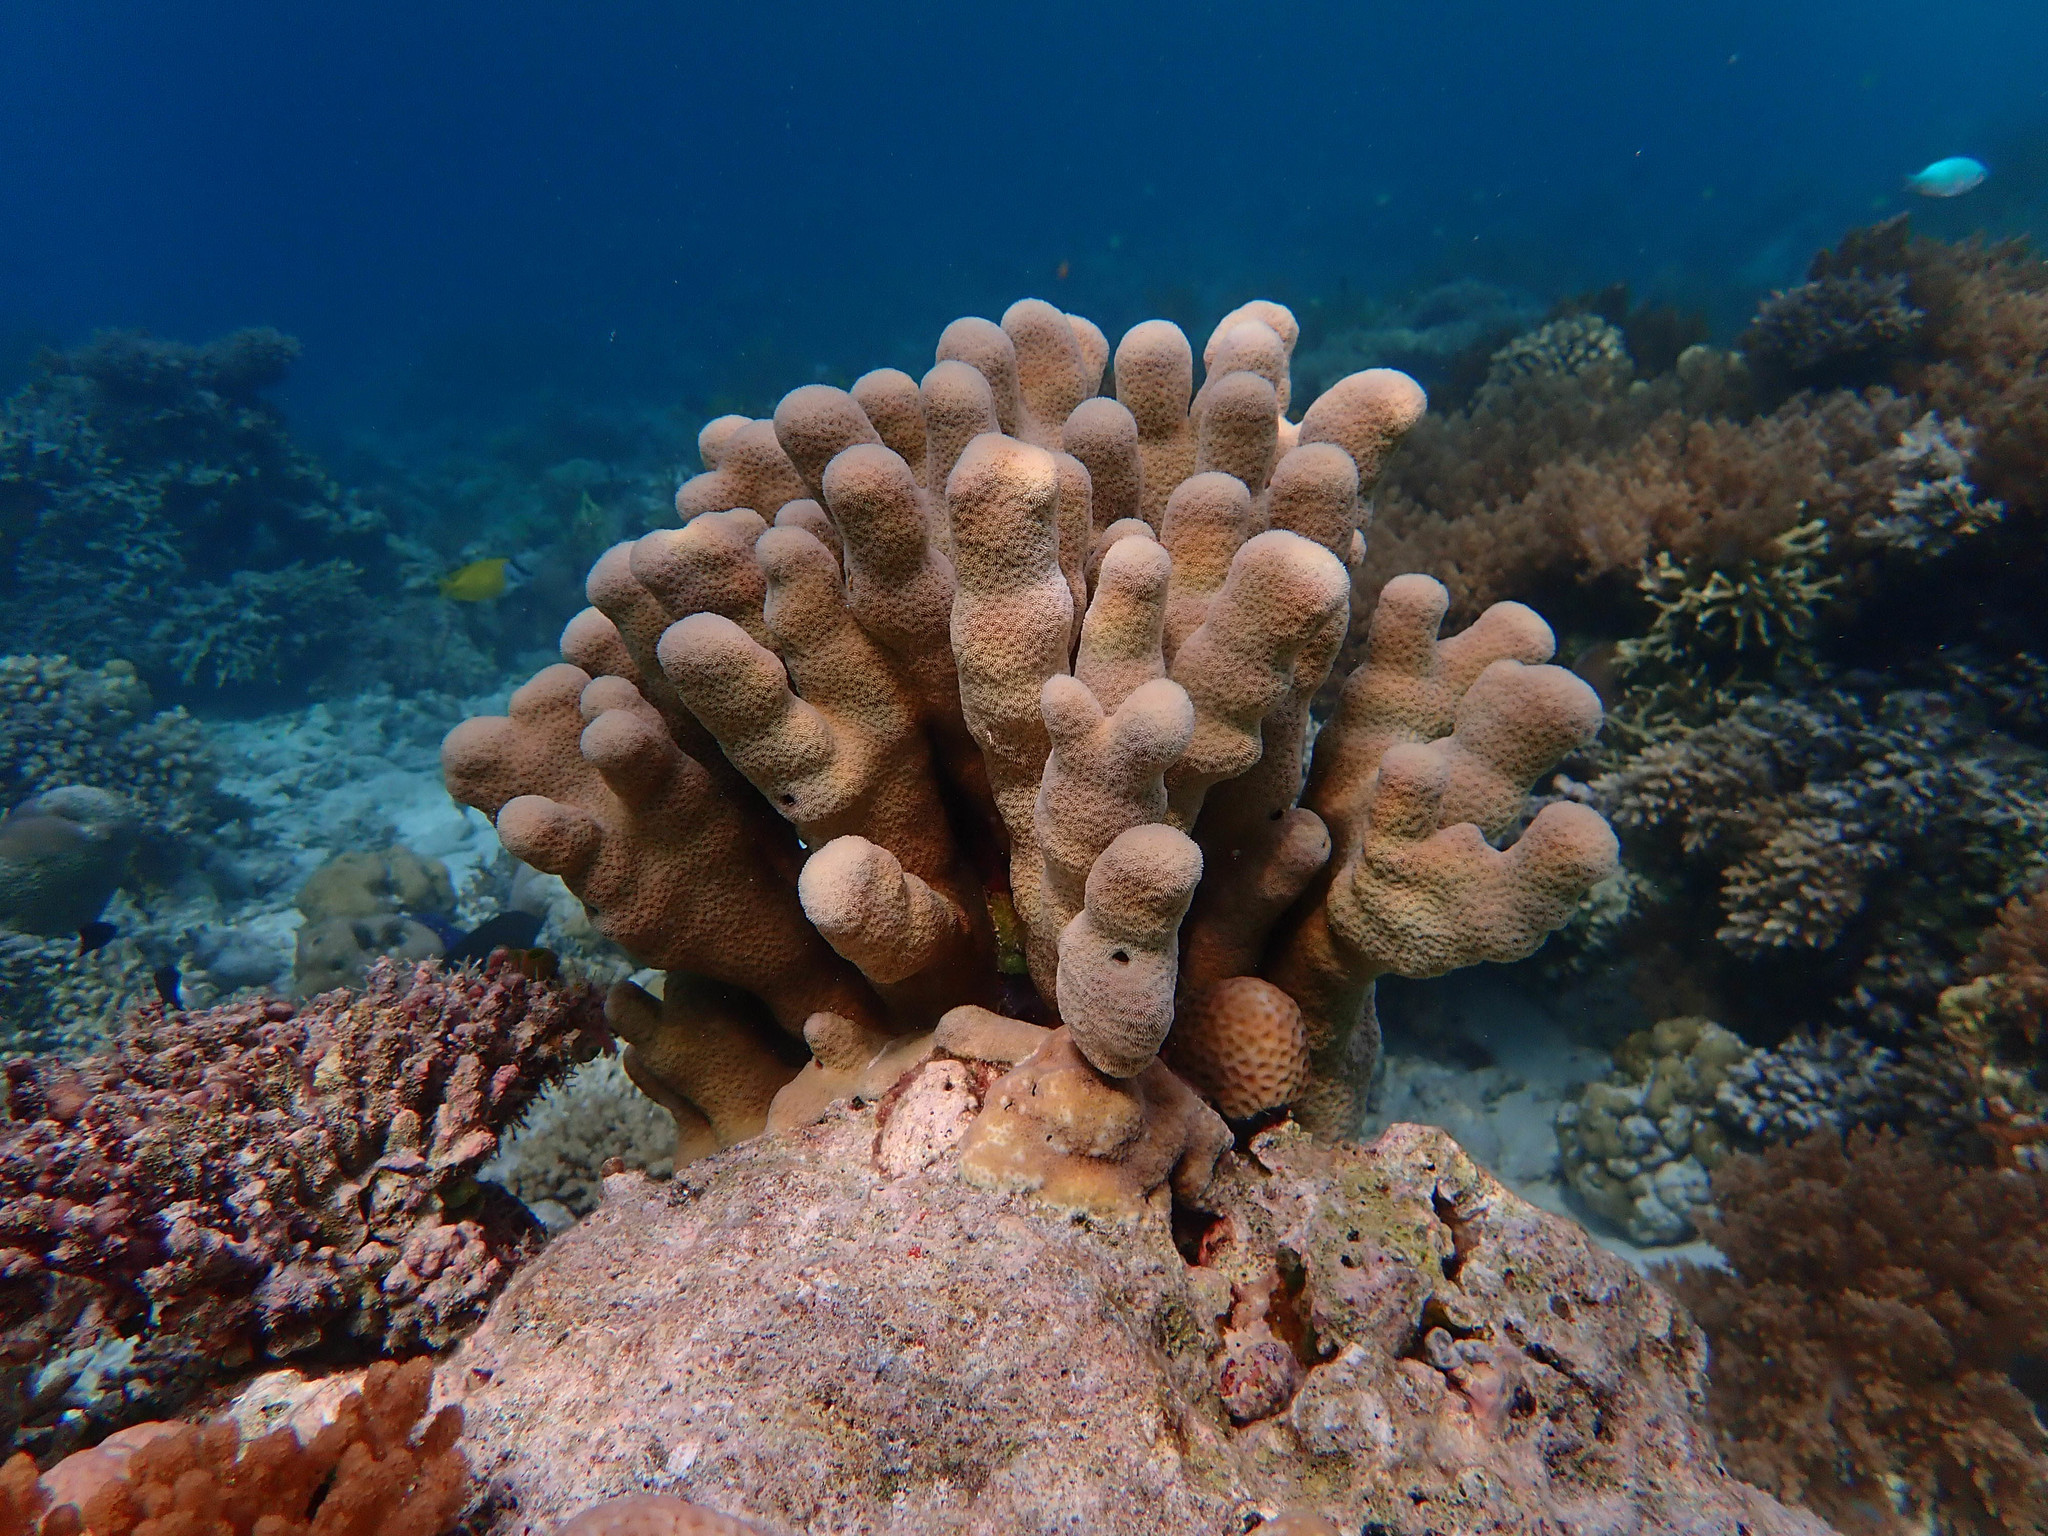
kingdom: Animalia
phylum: Cnidaria
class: Anthozoa
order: Scleractinia
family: Psammocoridae
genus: Psammocora
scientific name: Psammocora haimiana
